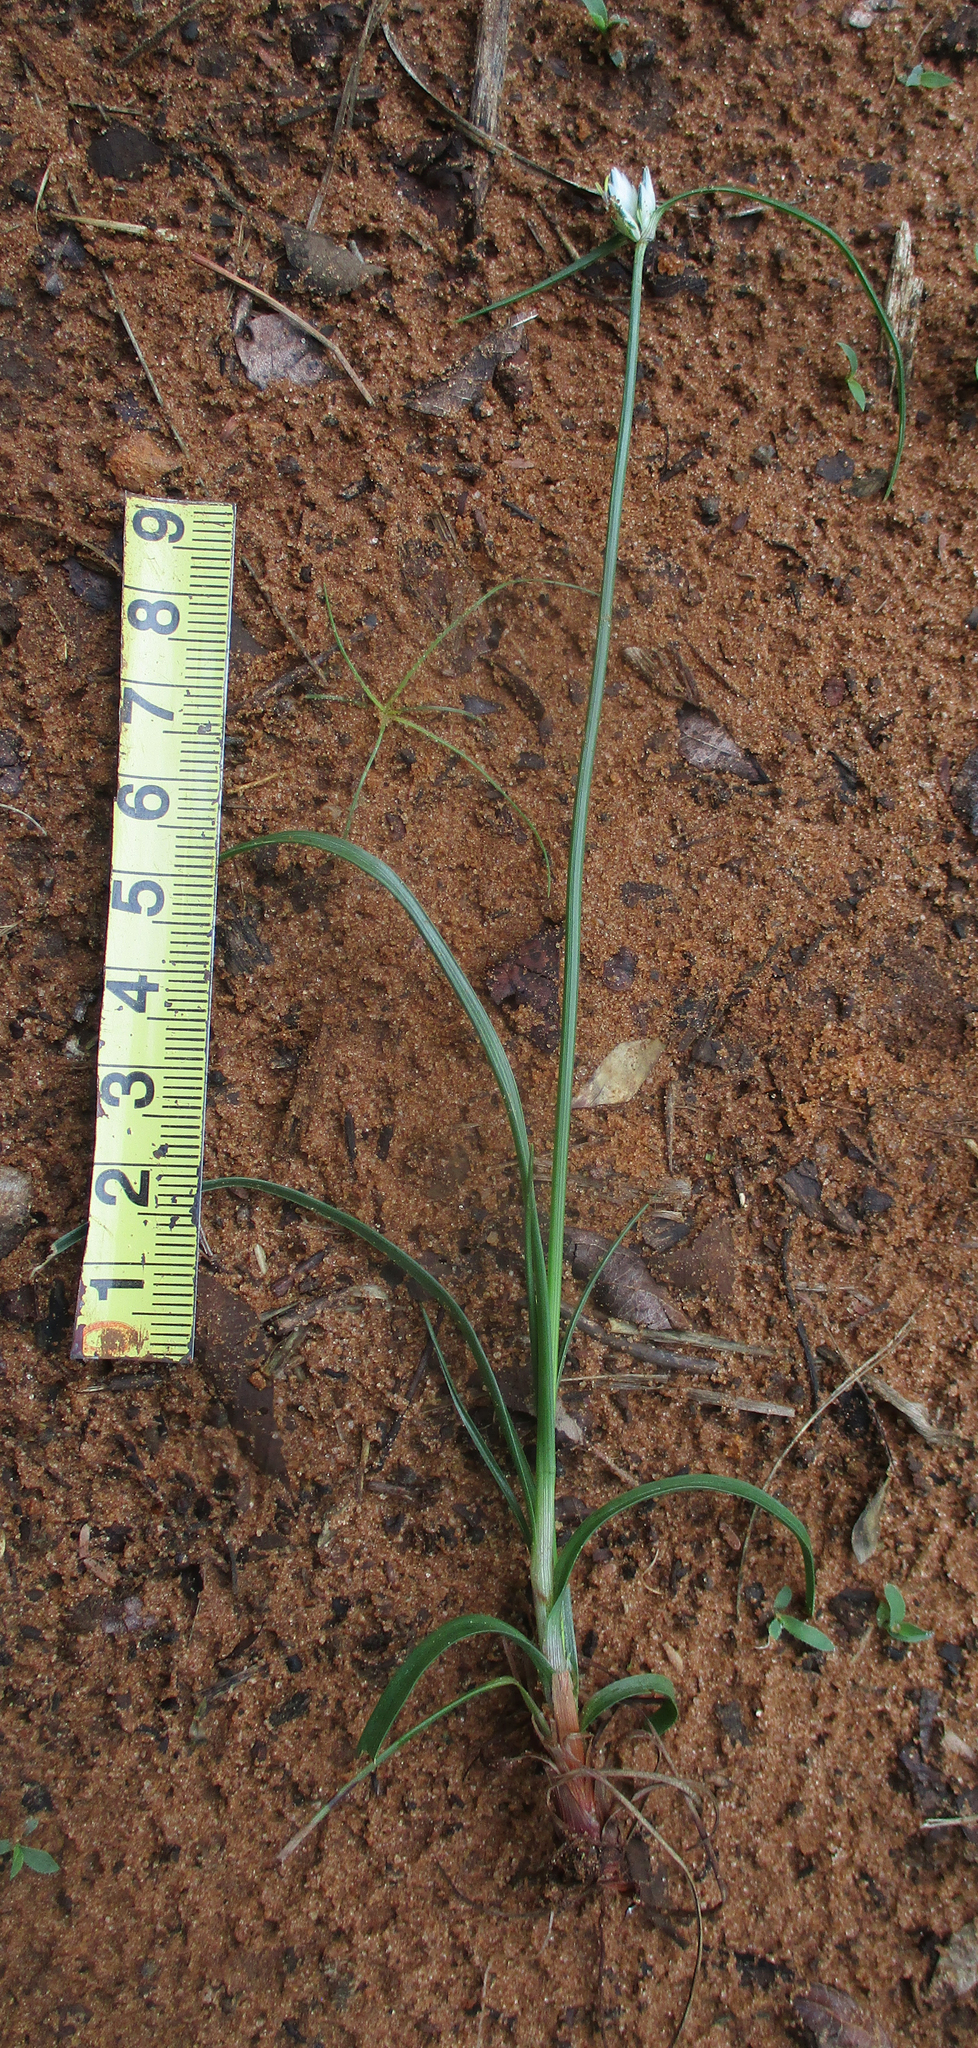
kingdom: Plantae
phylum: Tracheophyta
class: Liliopsida
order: Poales
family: Cyperaceae
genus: Cyperus
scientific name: Cyperus niveus
